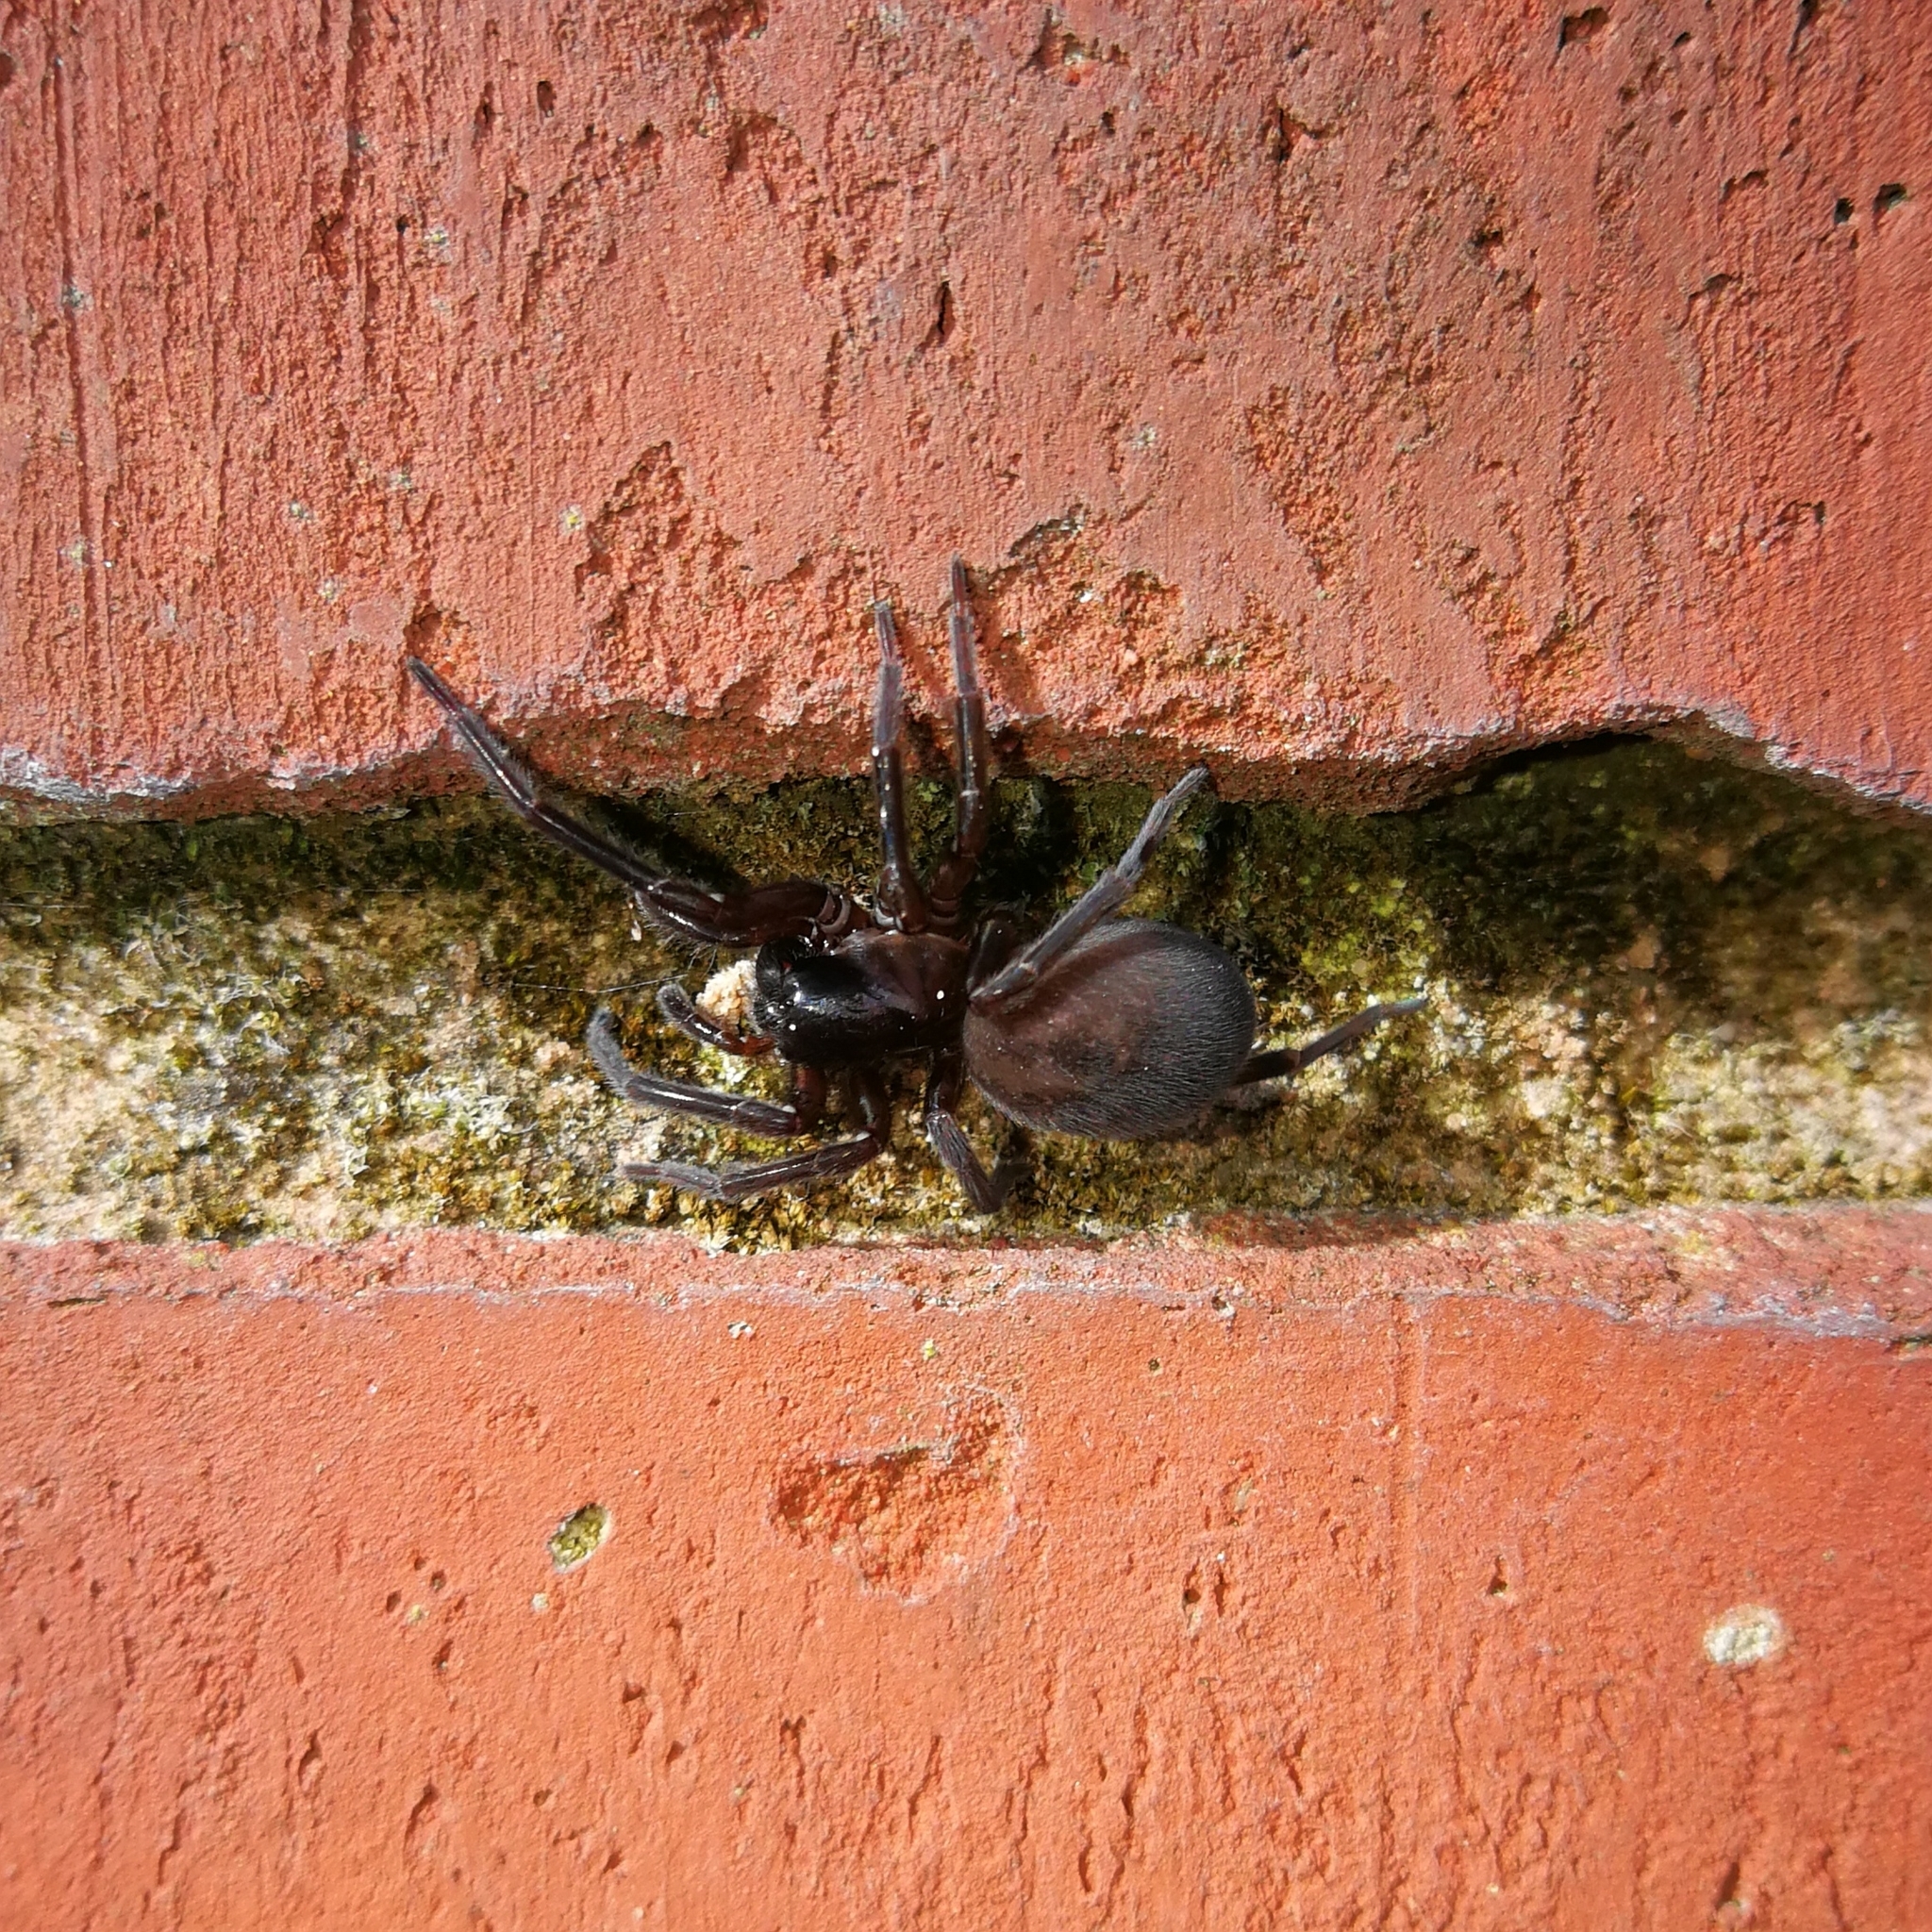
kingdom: Animalia
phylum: Arthropoda
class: Arachnida
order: Araneae
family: Amaurobiidae
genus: Amaurobius
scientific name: Amaurobius ferox
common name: Black laceweaver
